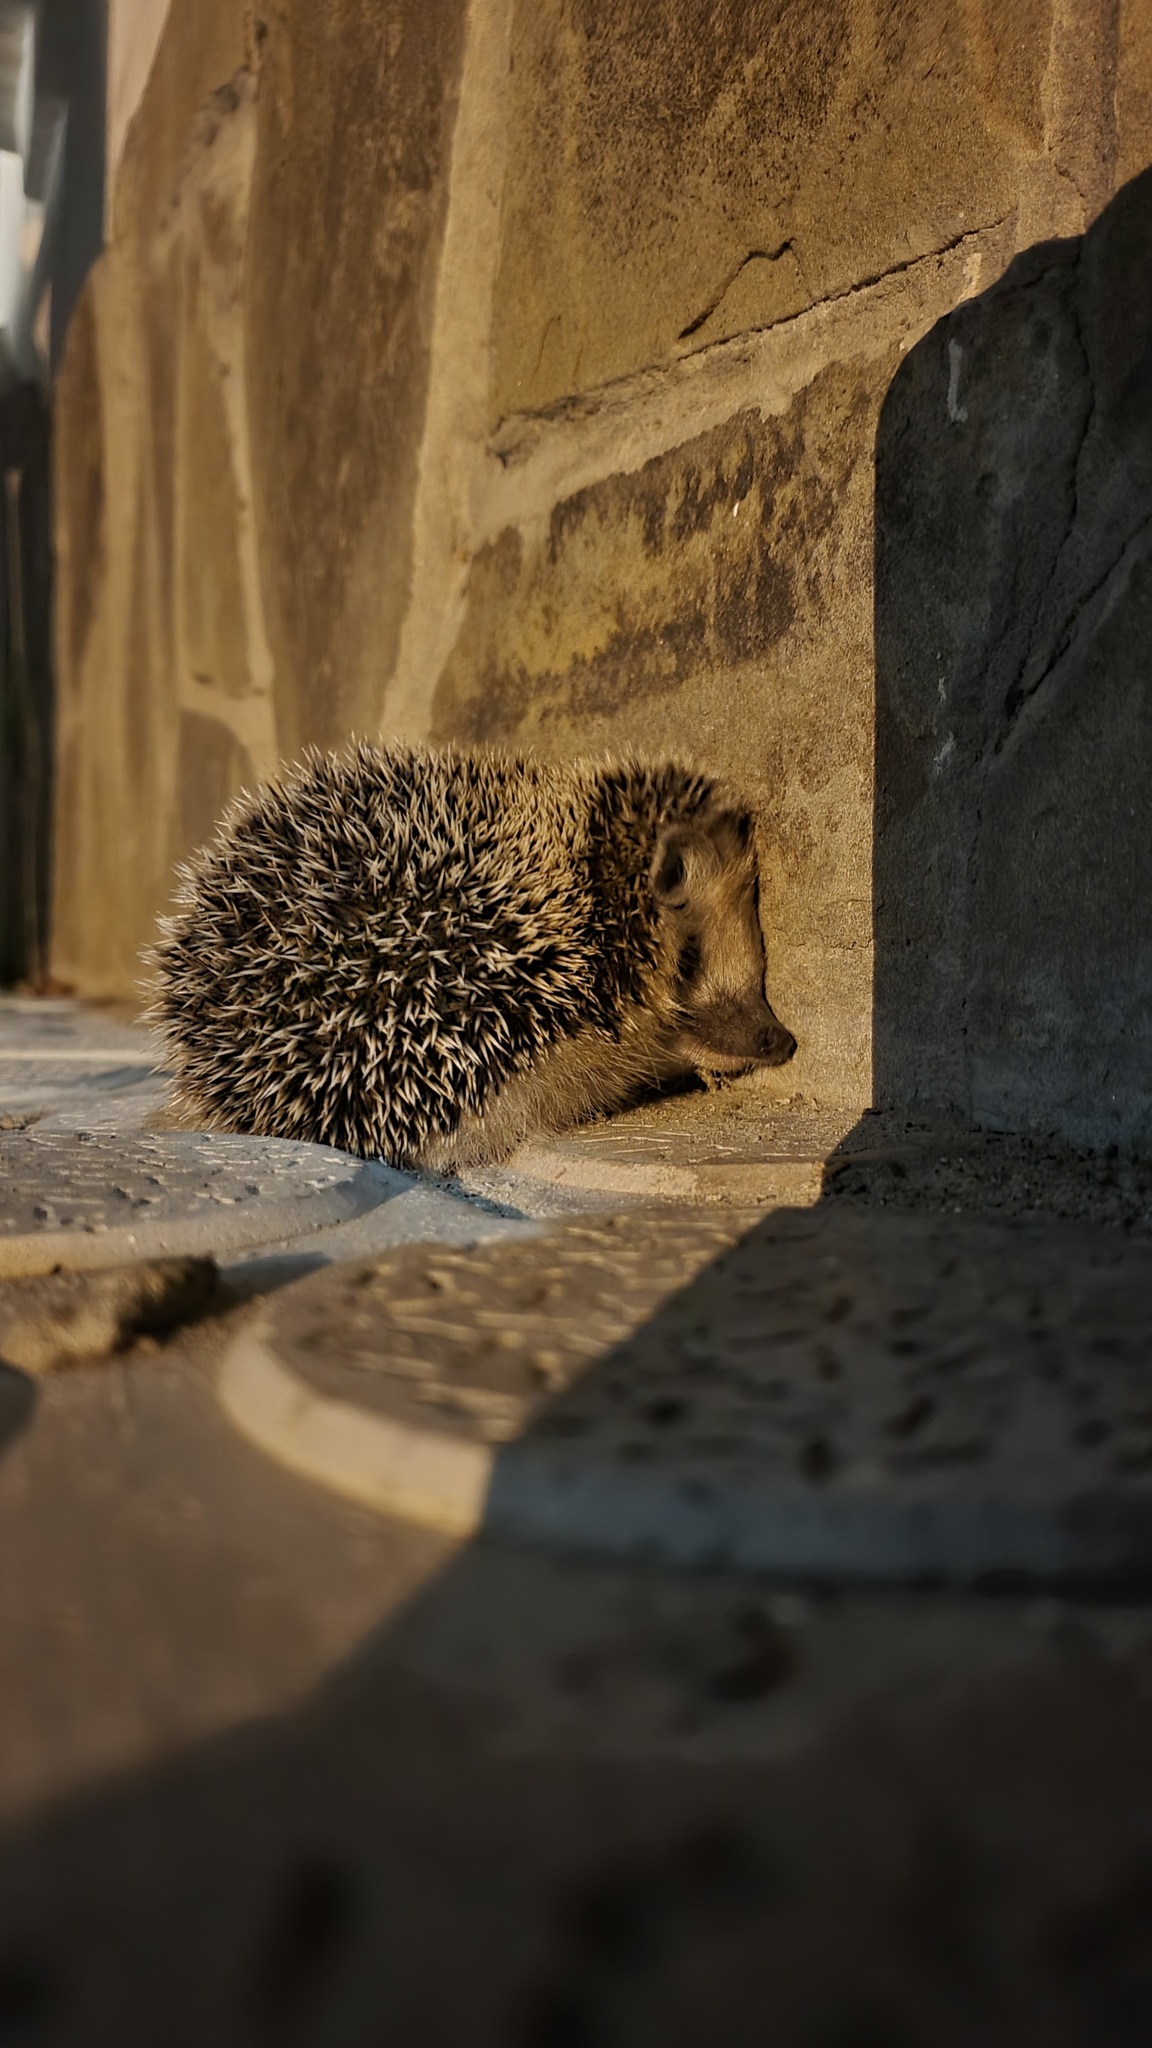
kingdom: Animalia
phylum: Chordata
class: Mammalia
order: Erinaceomorpha
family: Erinaceidae
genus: Hemiechinus
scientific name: Hemiechinus auritus
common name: Long-eared hedgehog
